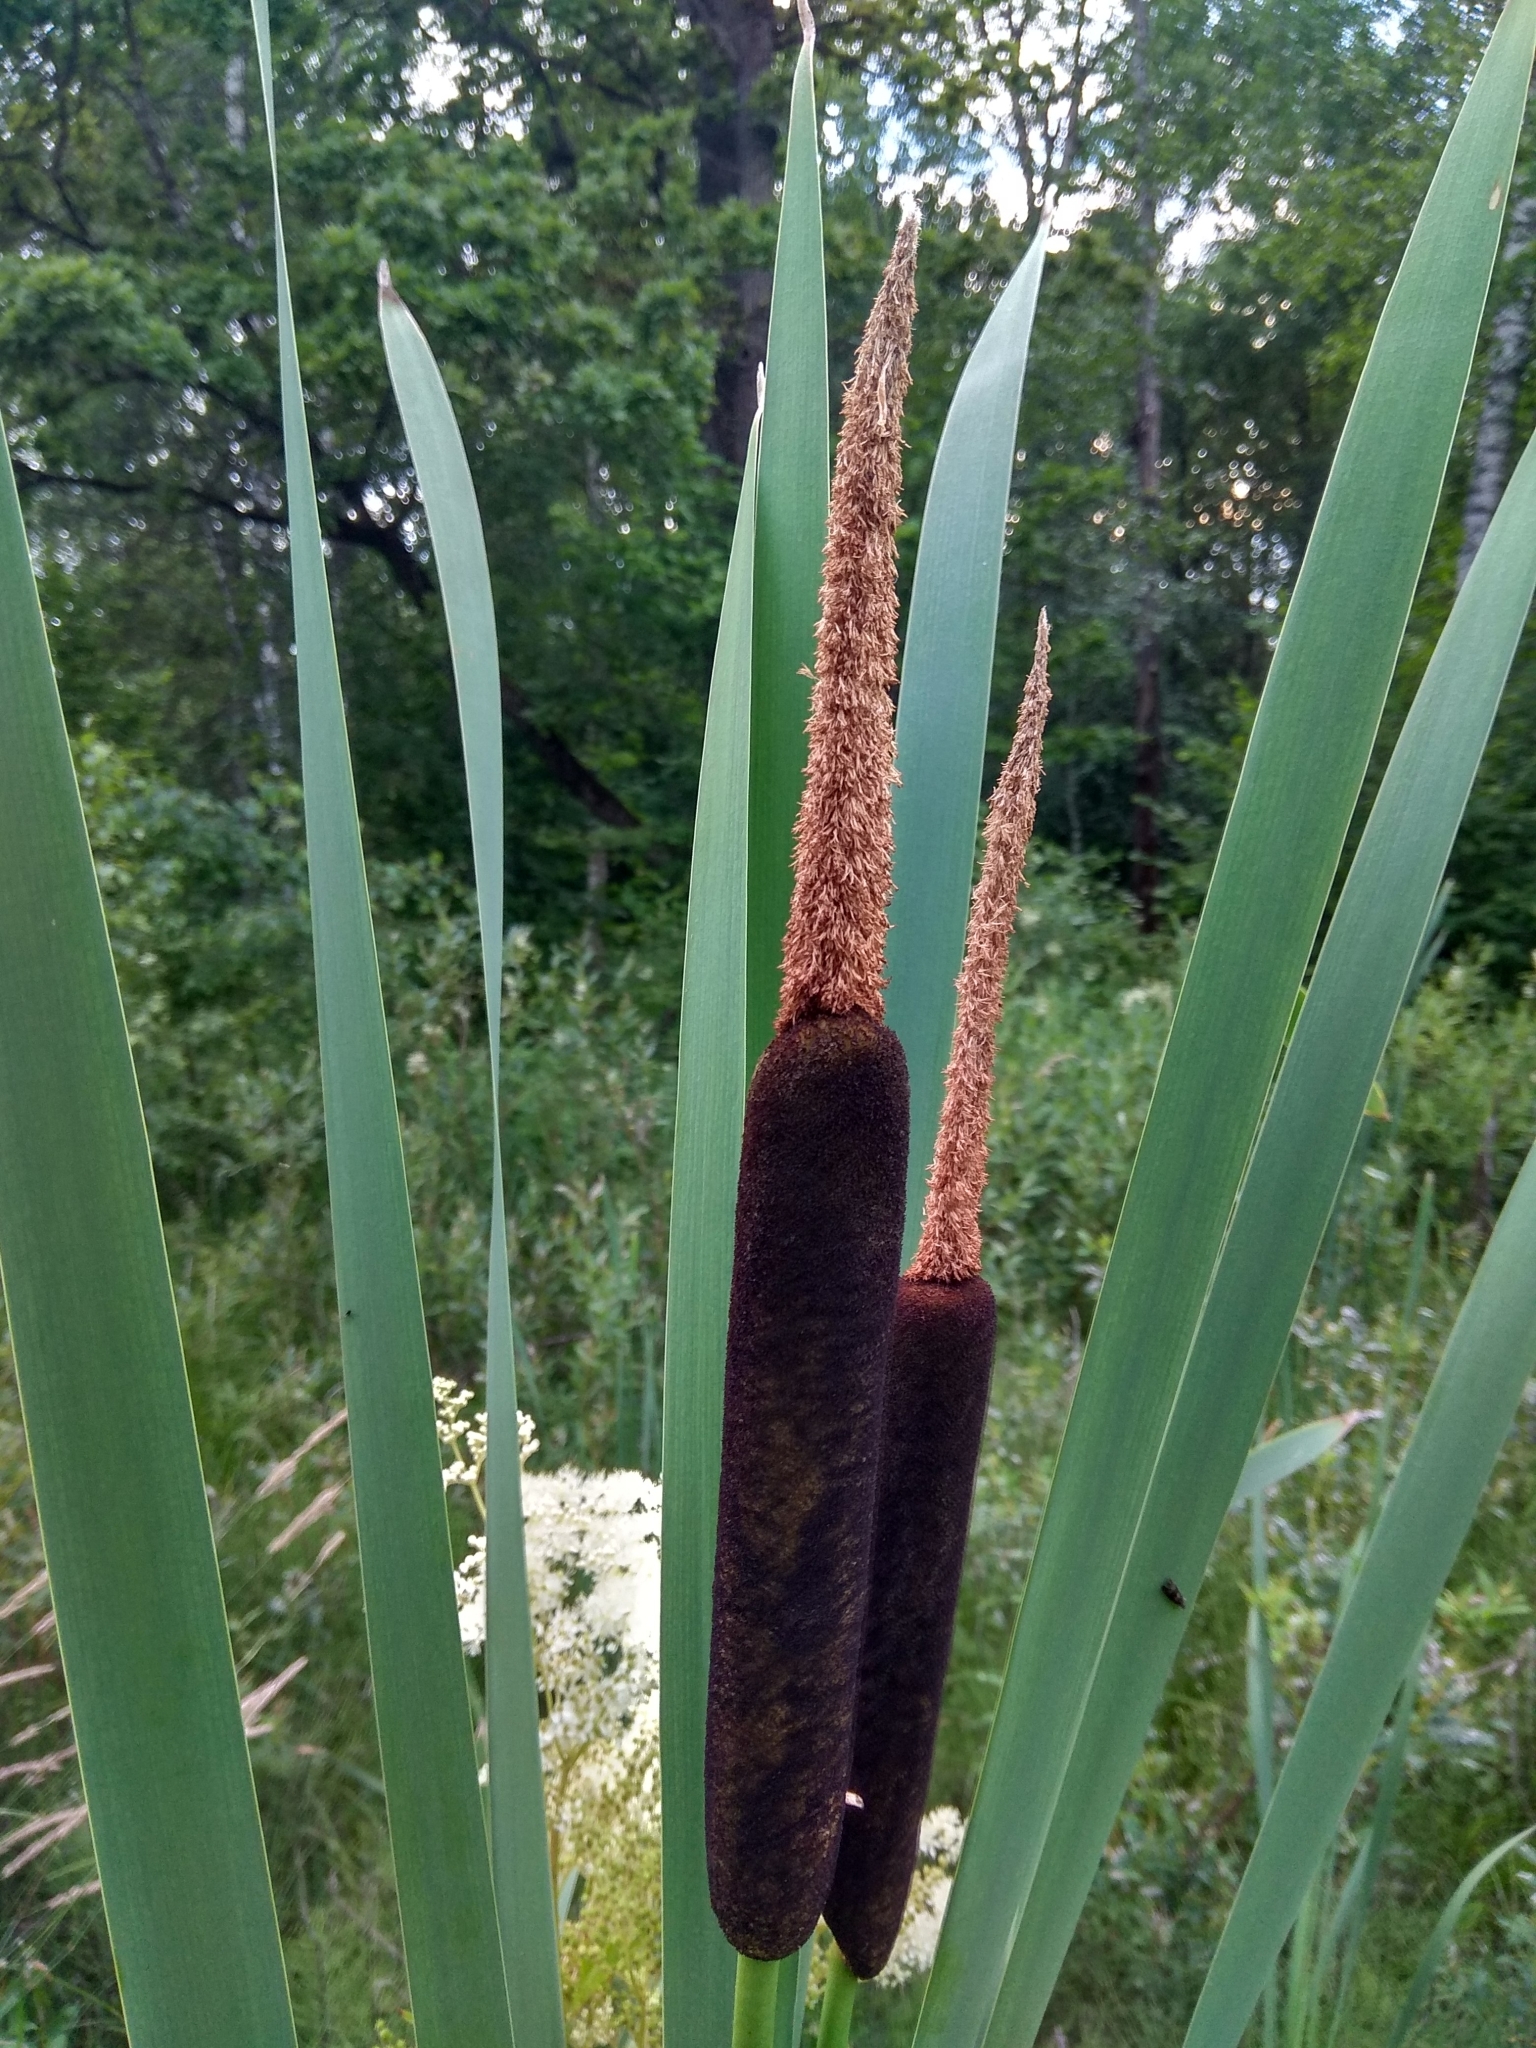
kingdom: Plantae
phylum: Tracheophyta
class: Liliopsida
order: Poales
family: Typhaceae
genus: Typha
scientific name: Typha latifolia
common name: Broadleaf cattail
